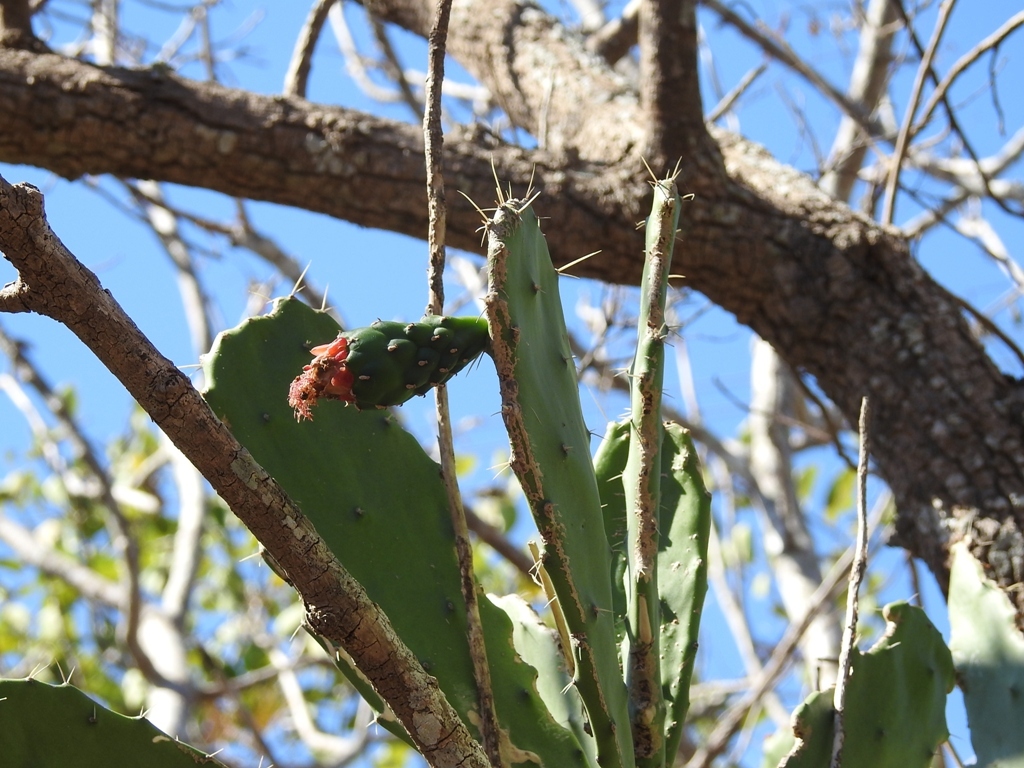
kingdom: Plantae
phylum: Tracheophyta
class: Magnoliopsida
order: Caryophyllales
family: Cactaceae
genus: Opuntia
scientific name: Opuntia dejecta
